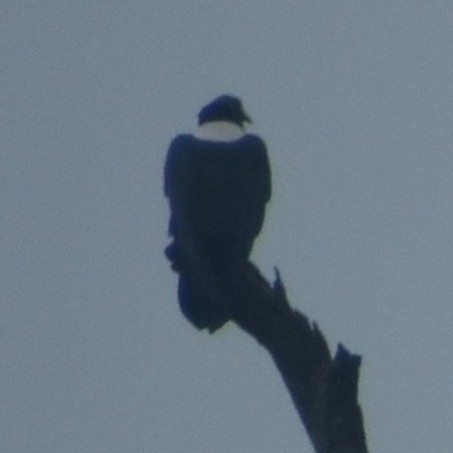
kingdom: Animalia
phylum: Chordata
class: Aves
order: Passeriformes
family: Corvidae
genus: Corvus
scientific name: Corvus albus
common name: Pied crow
